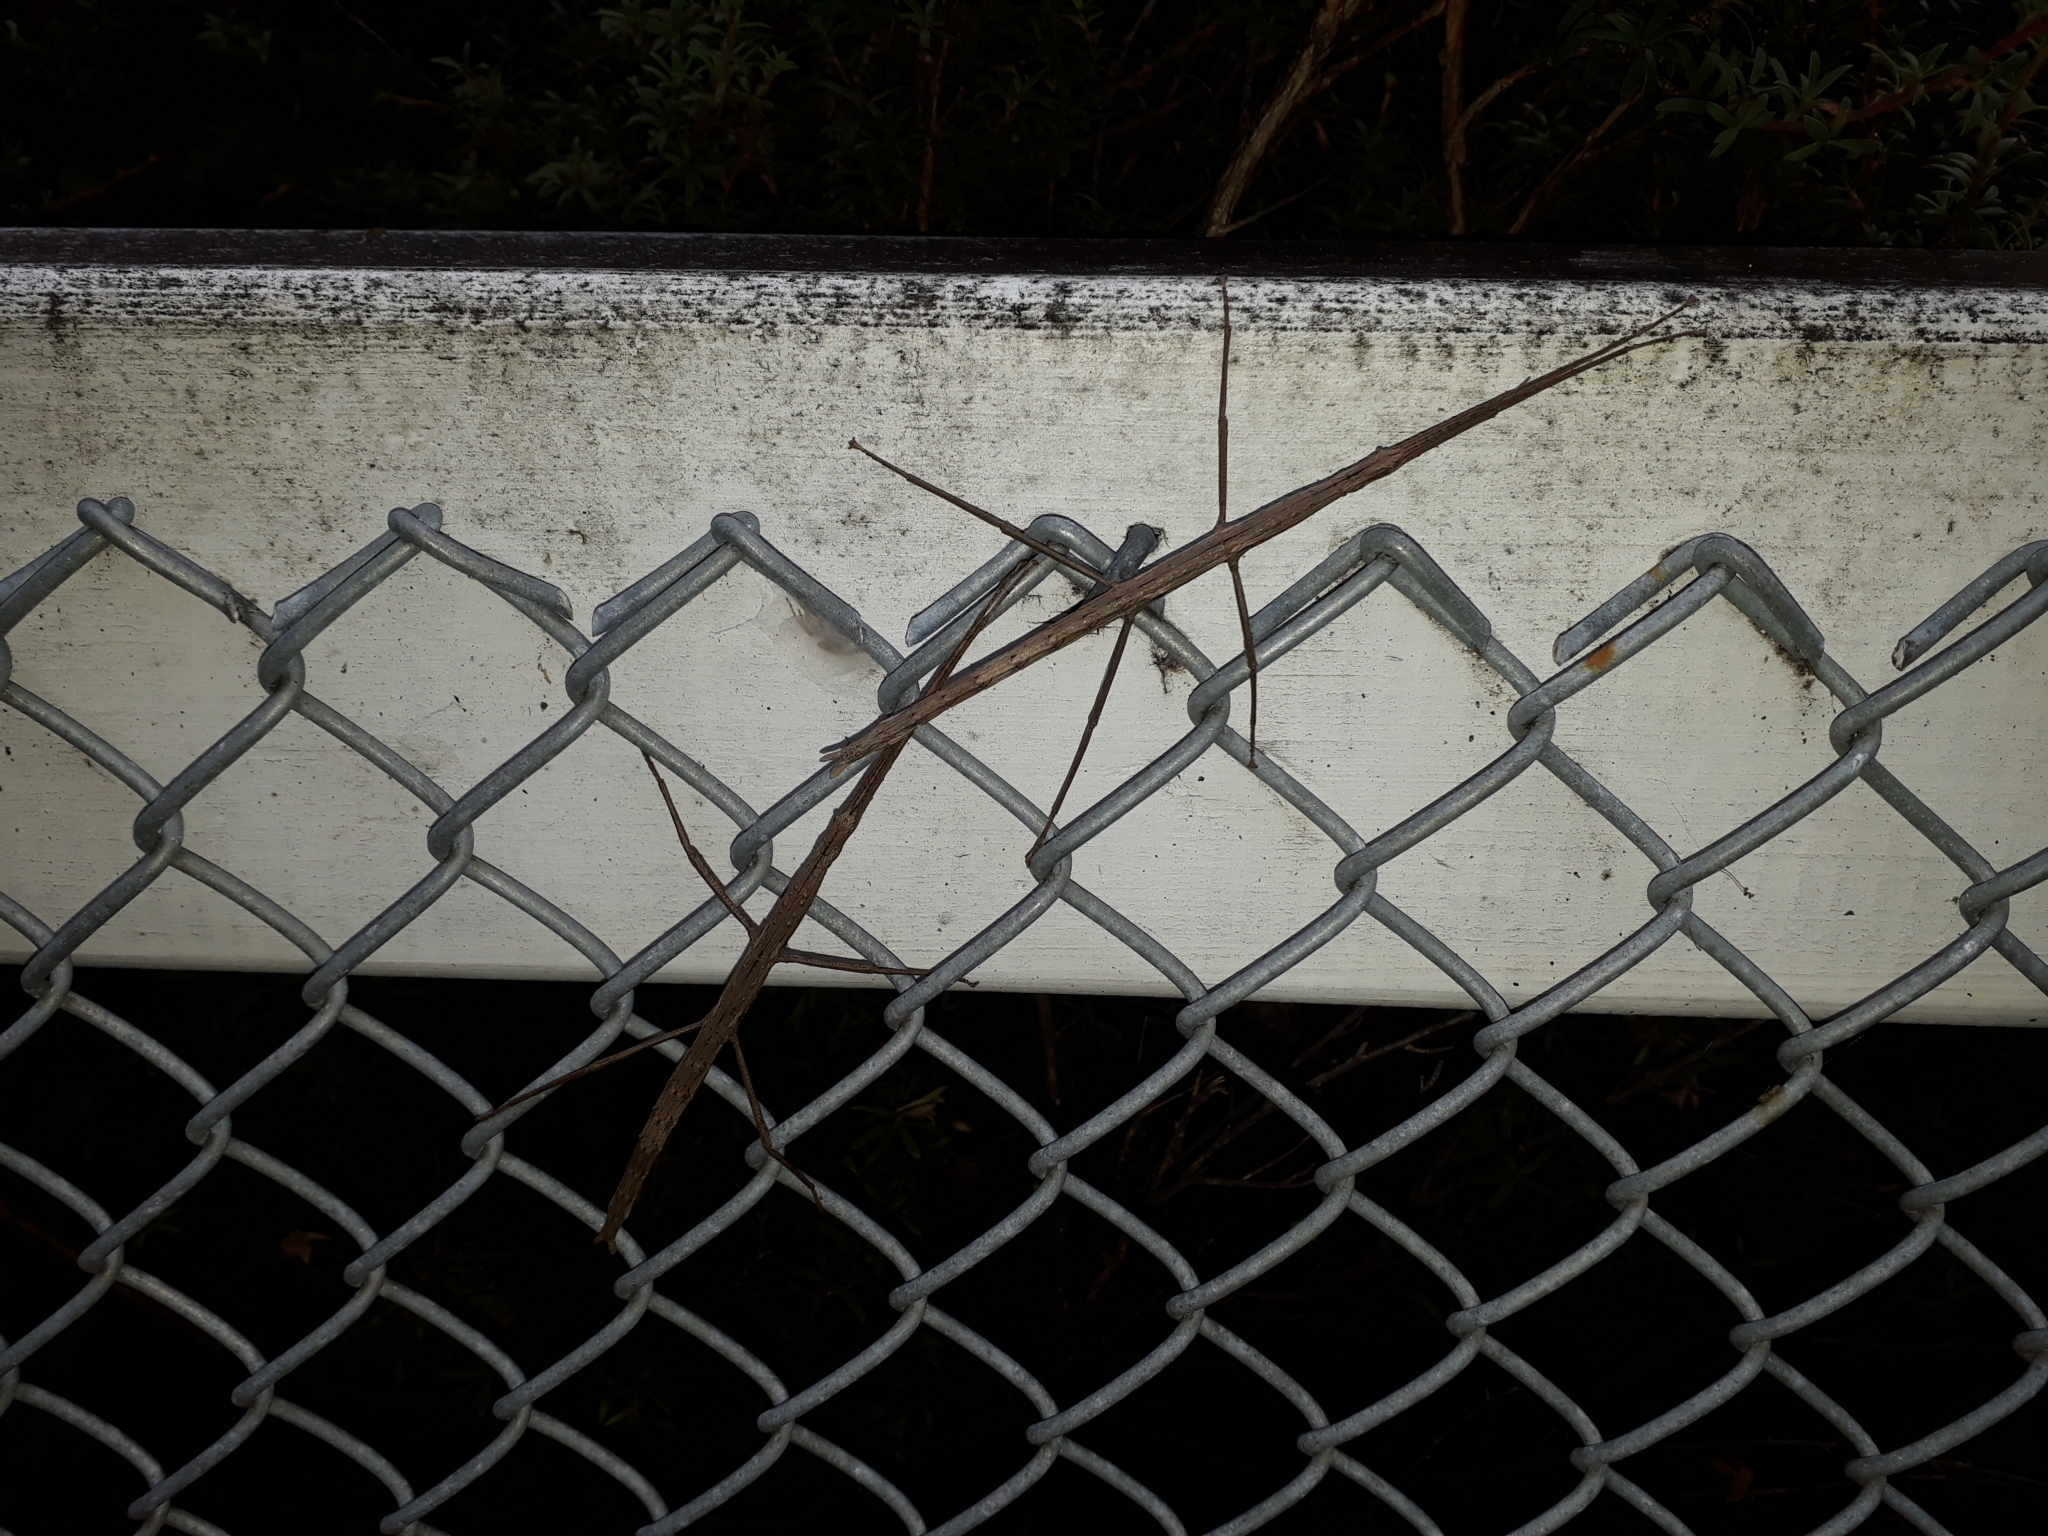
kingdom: Animalia
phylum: Arthropoda
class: Insecta
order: Phasmida
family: Phasmatidae
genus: Clitarchus
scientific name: Clitarchus hookeri
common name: Smooth stick insect
